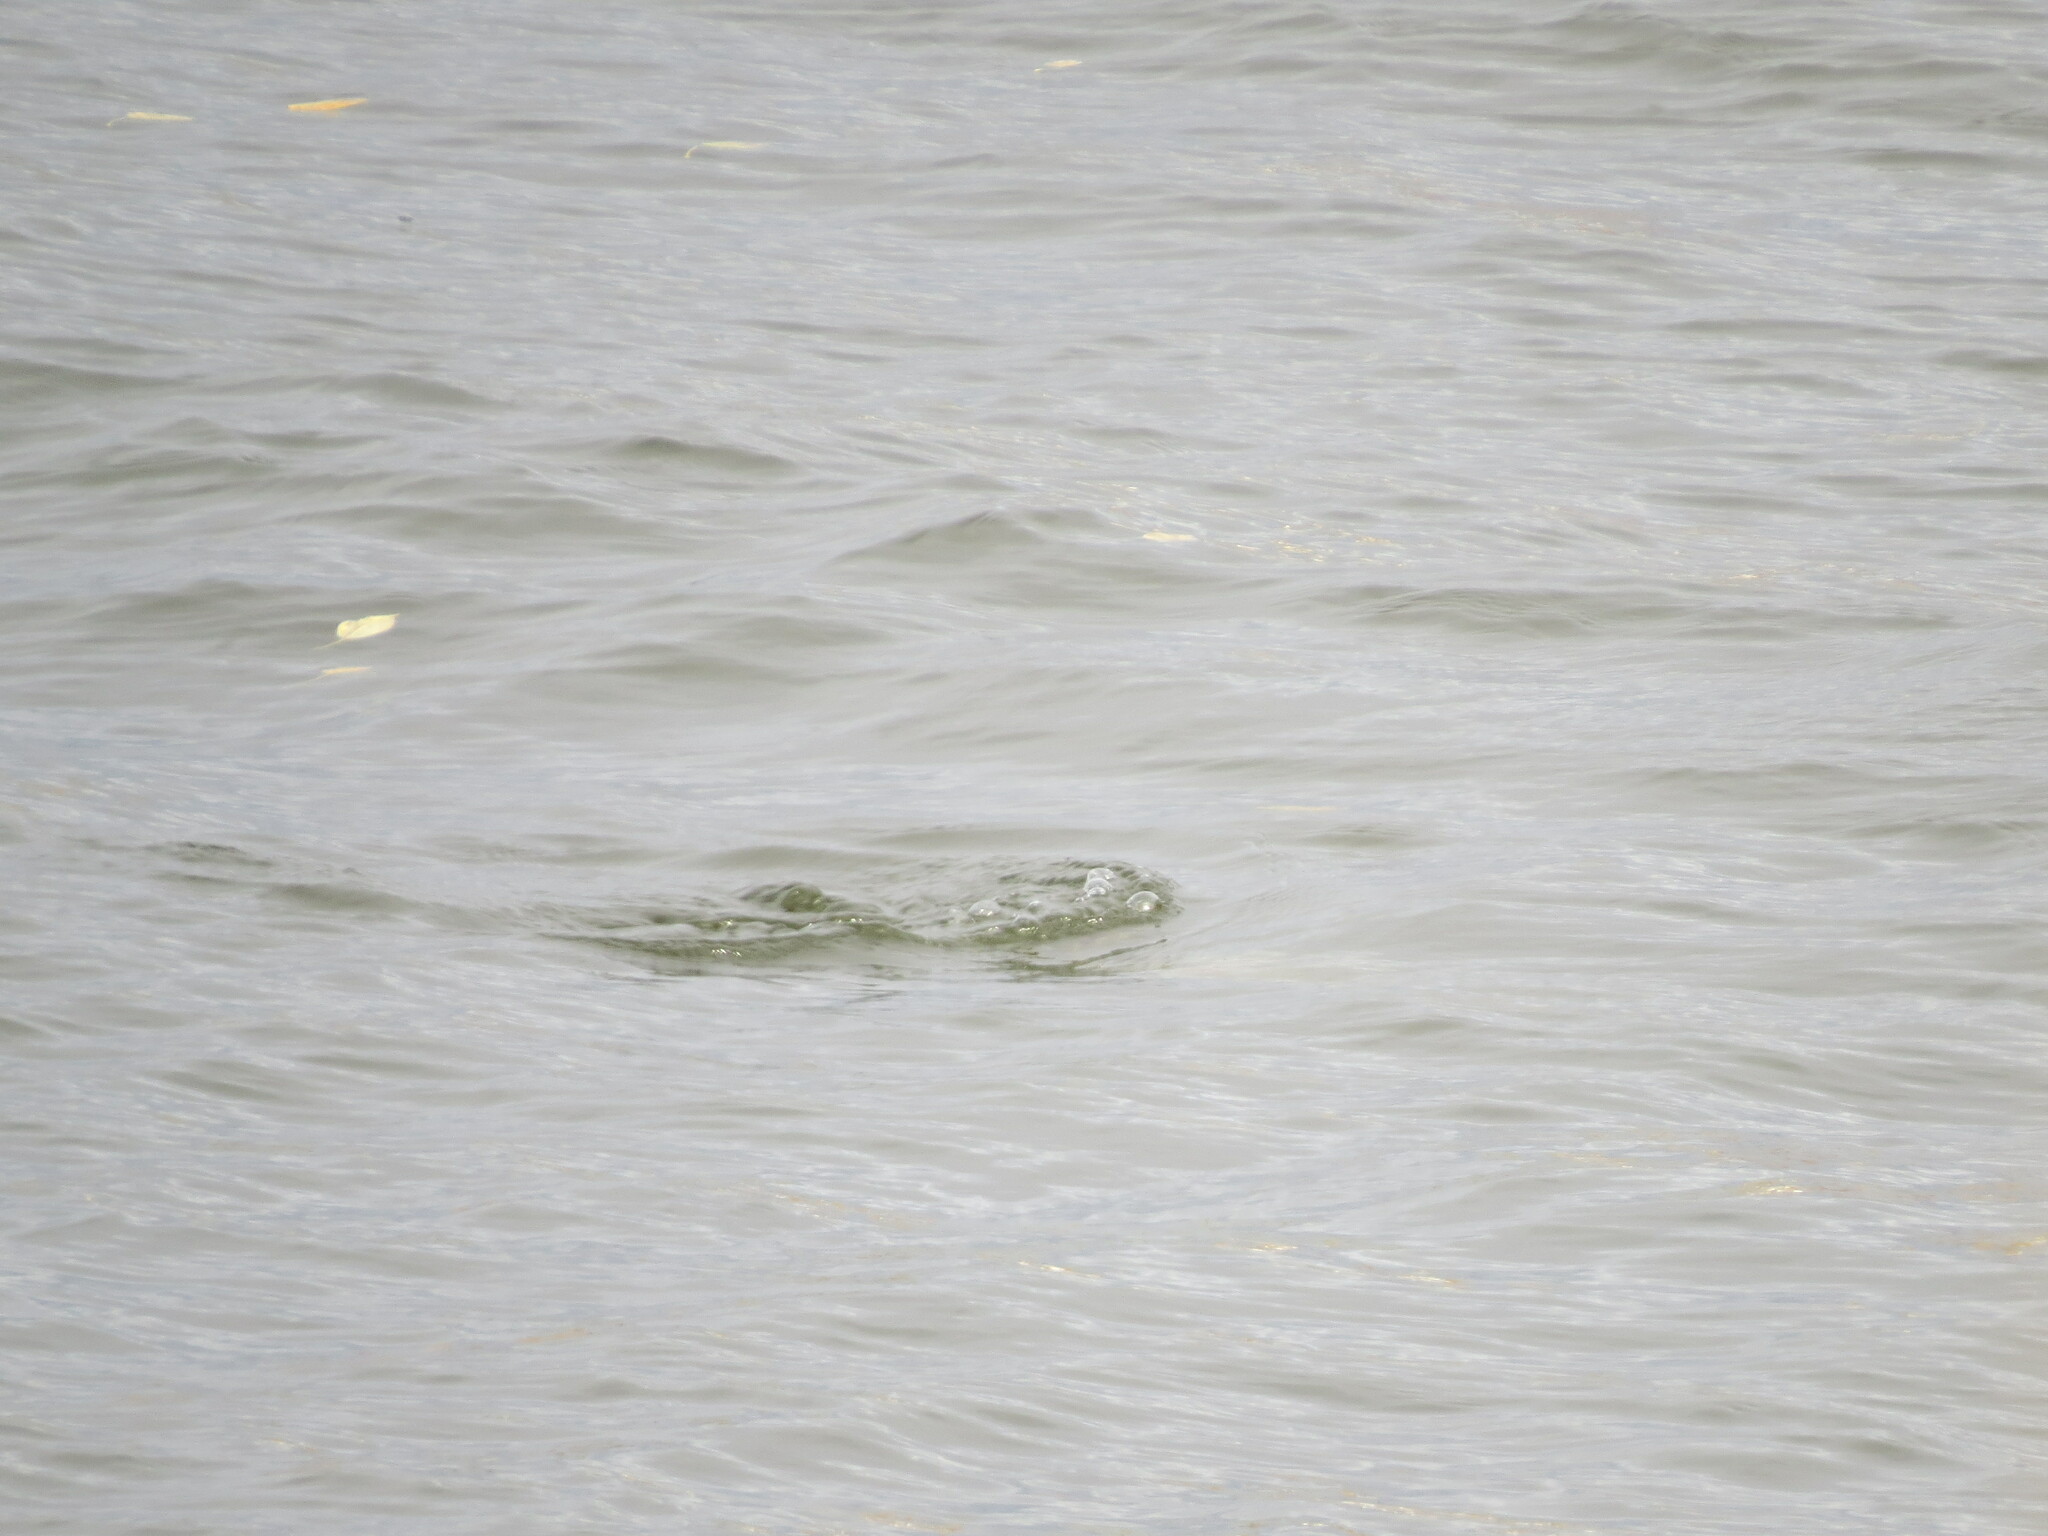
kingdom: Animalia
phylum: Chordata
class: Aves
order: Podicipediformes
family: Podicipedidae
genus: Podiceps
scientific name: Podiceps cristatus
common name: Great crested grebe
